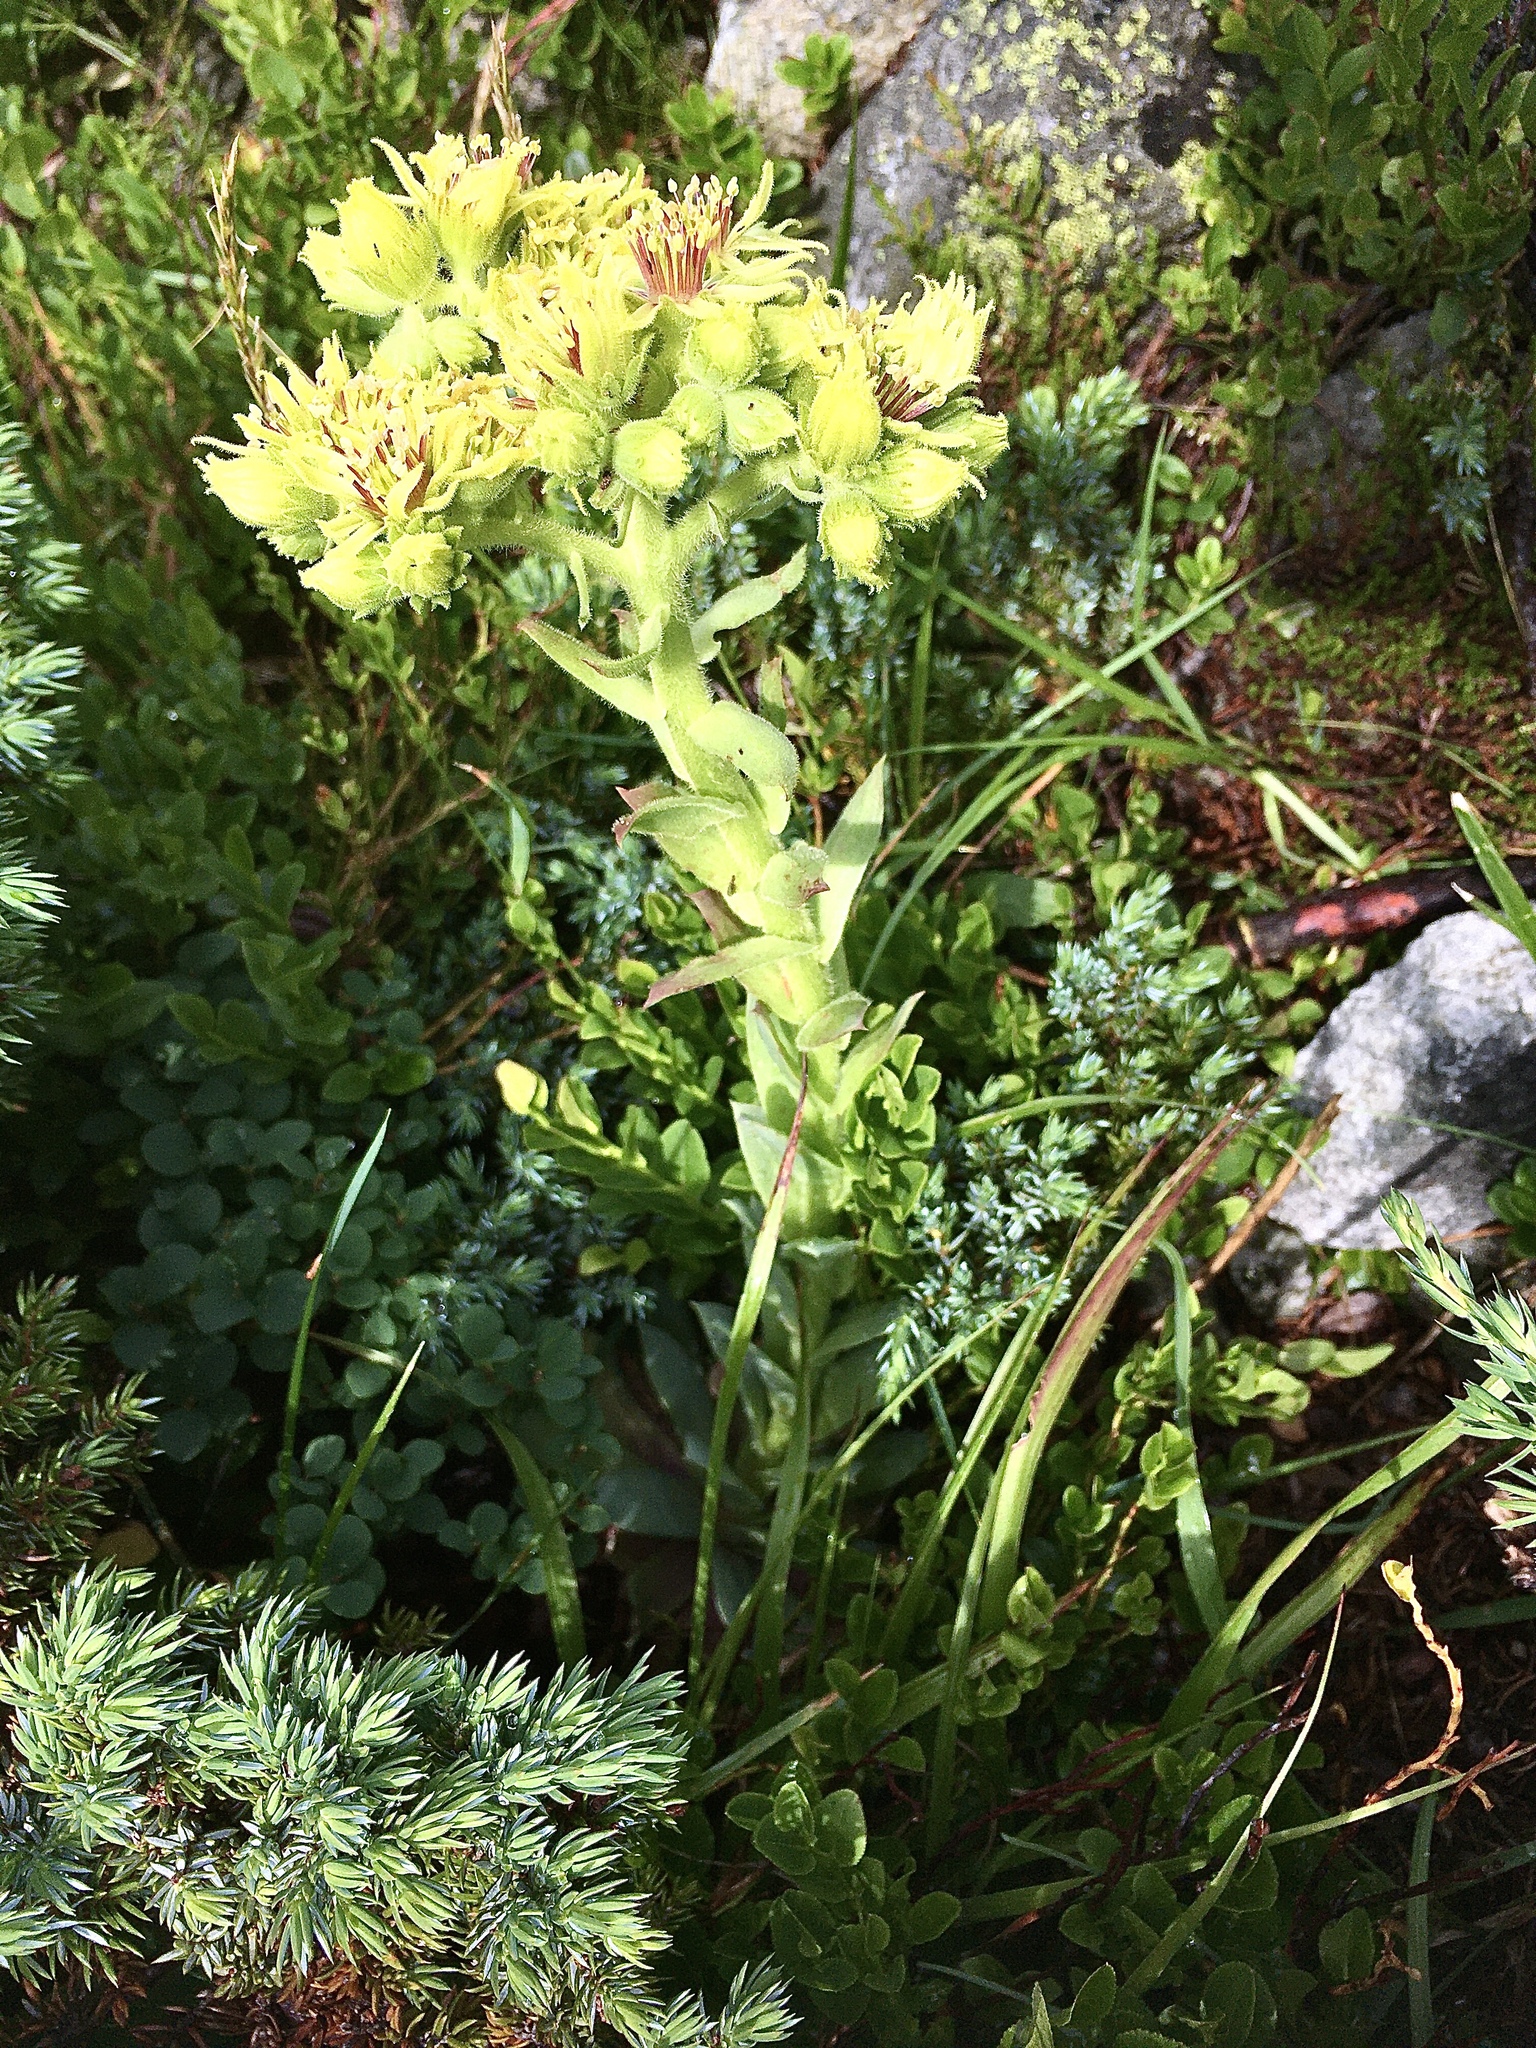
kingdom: Plantae
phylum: Tracheophyta
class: Magnoliopsida
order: Saxifragales
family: Crassulaceae
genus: Sempervivum
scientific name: Sempervivum wulfenii
